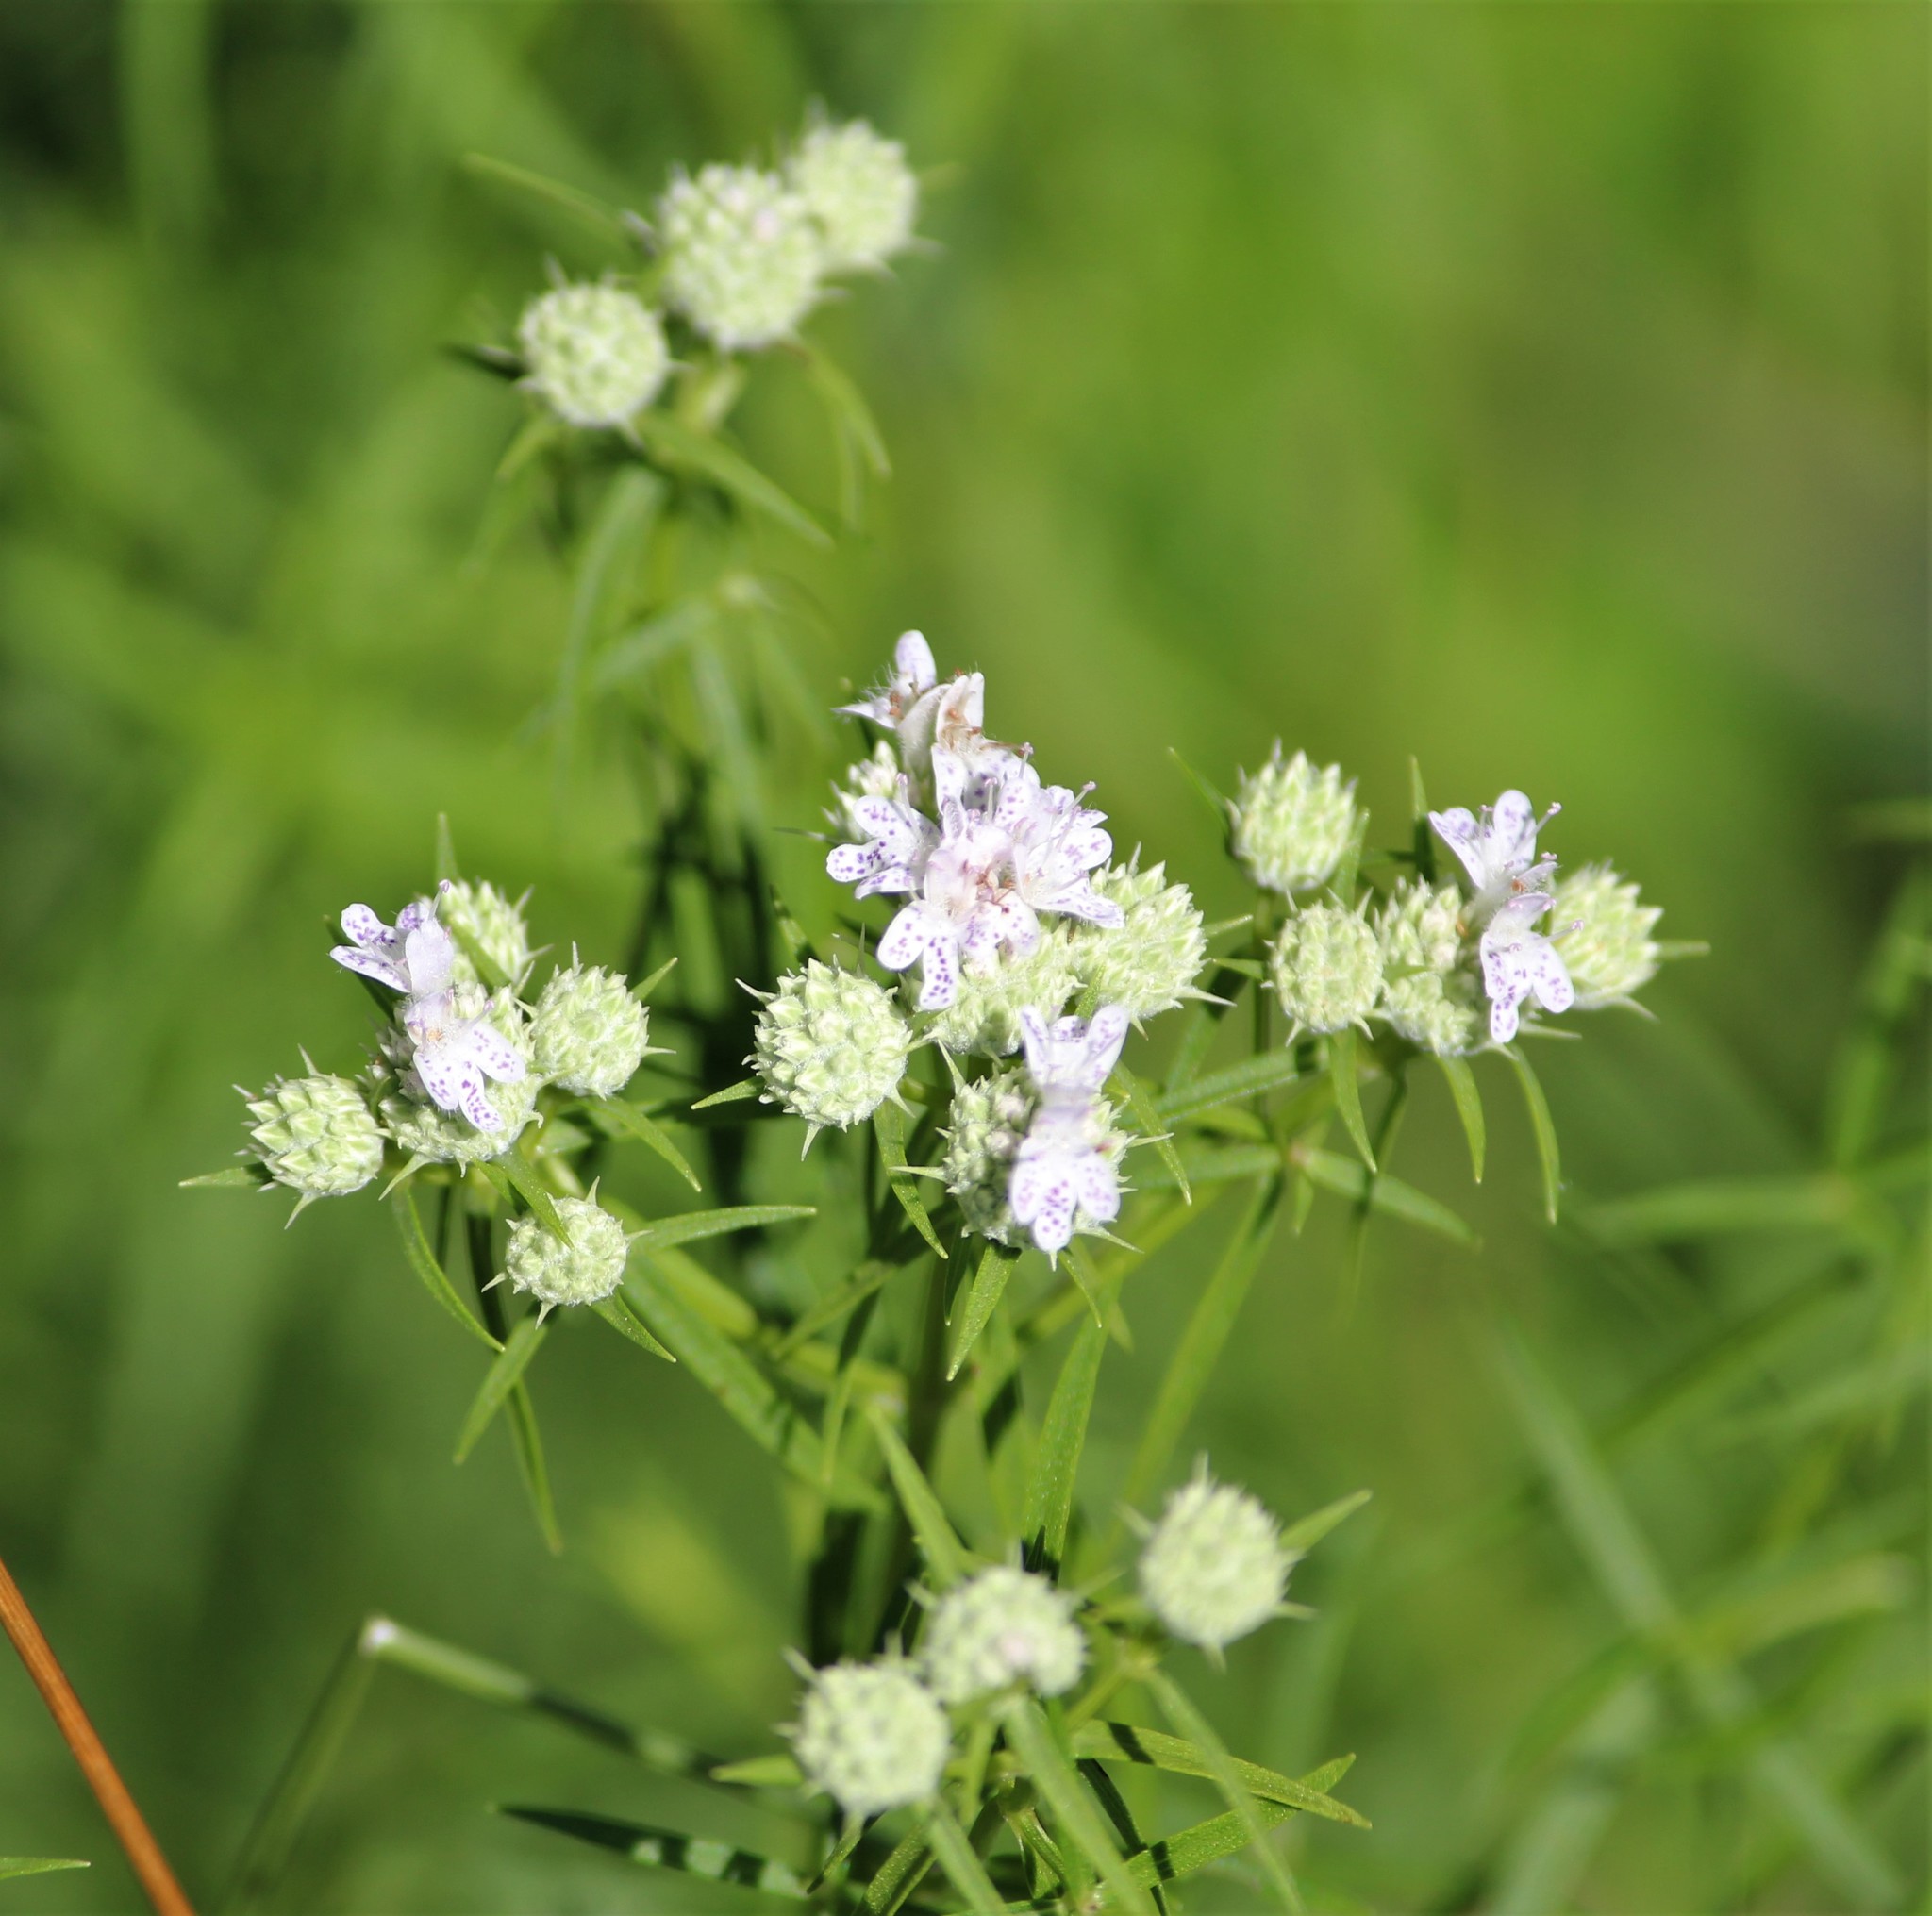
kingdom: Plantae
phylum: Tracheophyta
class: Magnoliopsida
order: Lamiales
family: Lamiaceae
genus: Pycnanthemum
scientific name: Pycnanthemum tenuifolium
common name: Narrow-leaf mountain-mint
